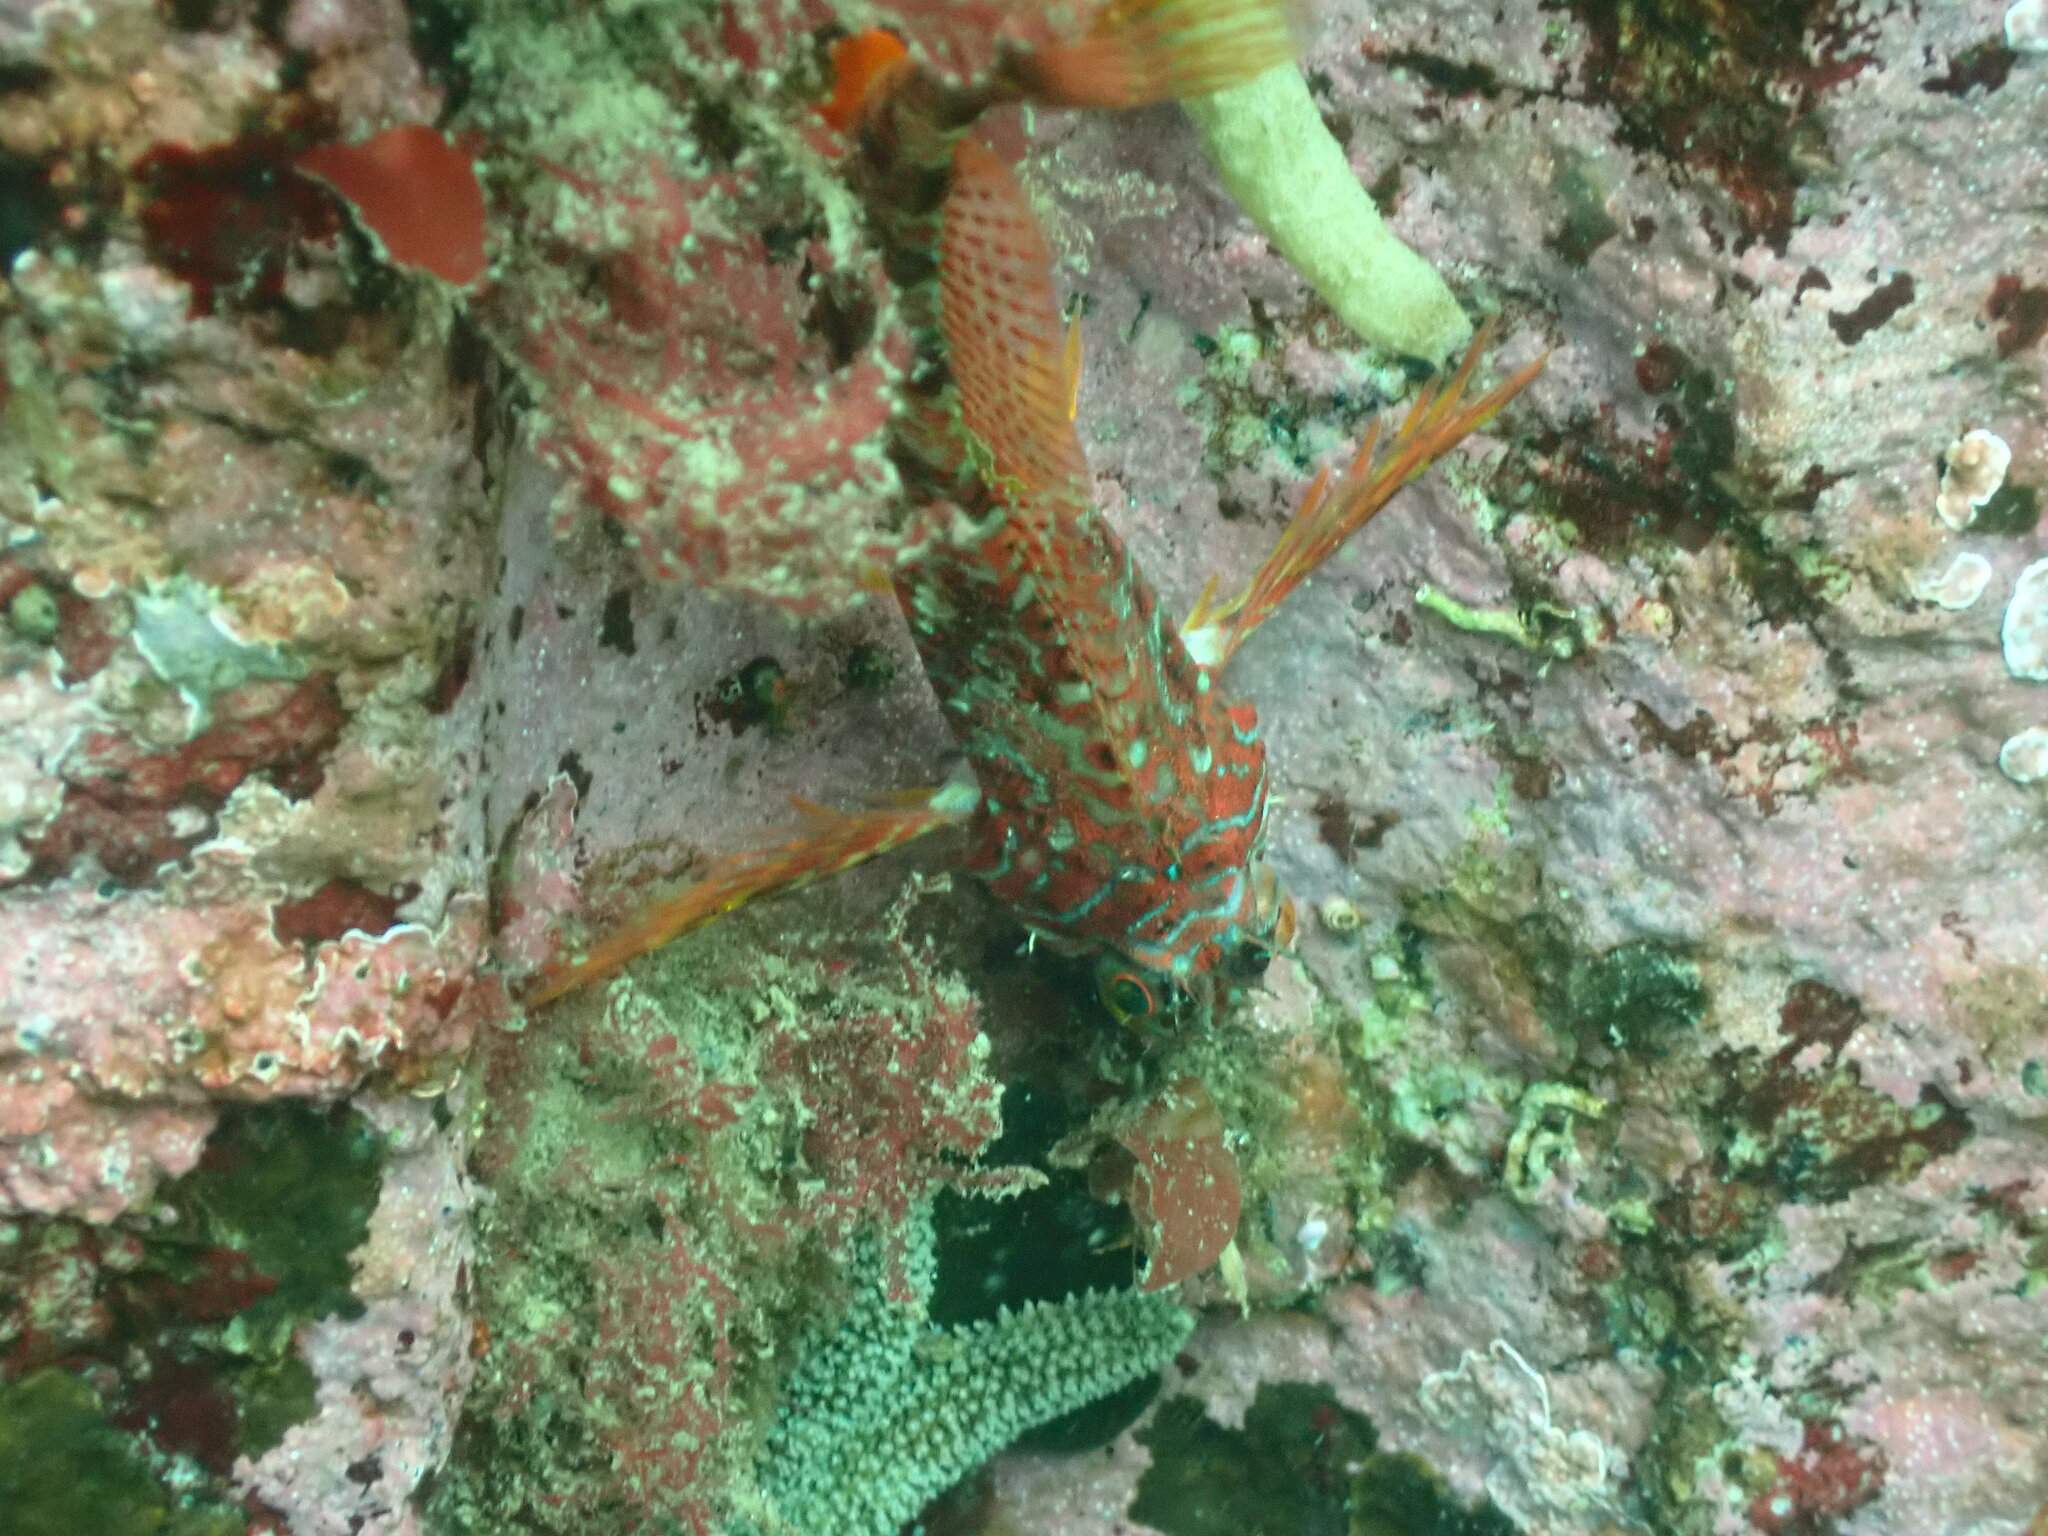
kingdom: Animalia
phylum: Chordata
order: Scorpaeniformes
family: Cottidae
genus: Jordania
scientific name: Jordania zonope
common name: Longfin sculpin
